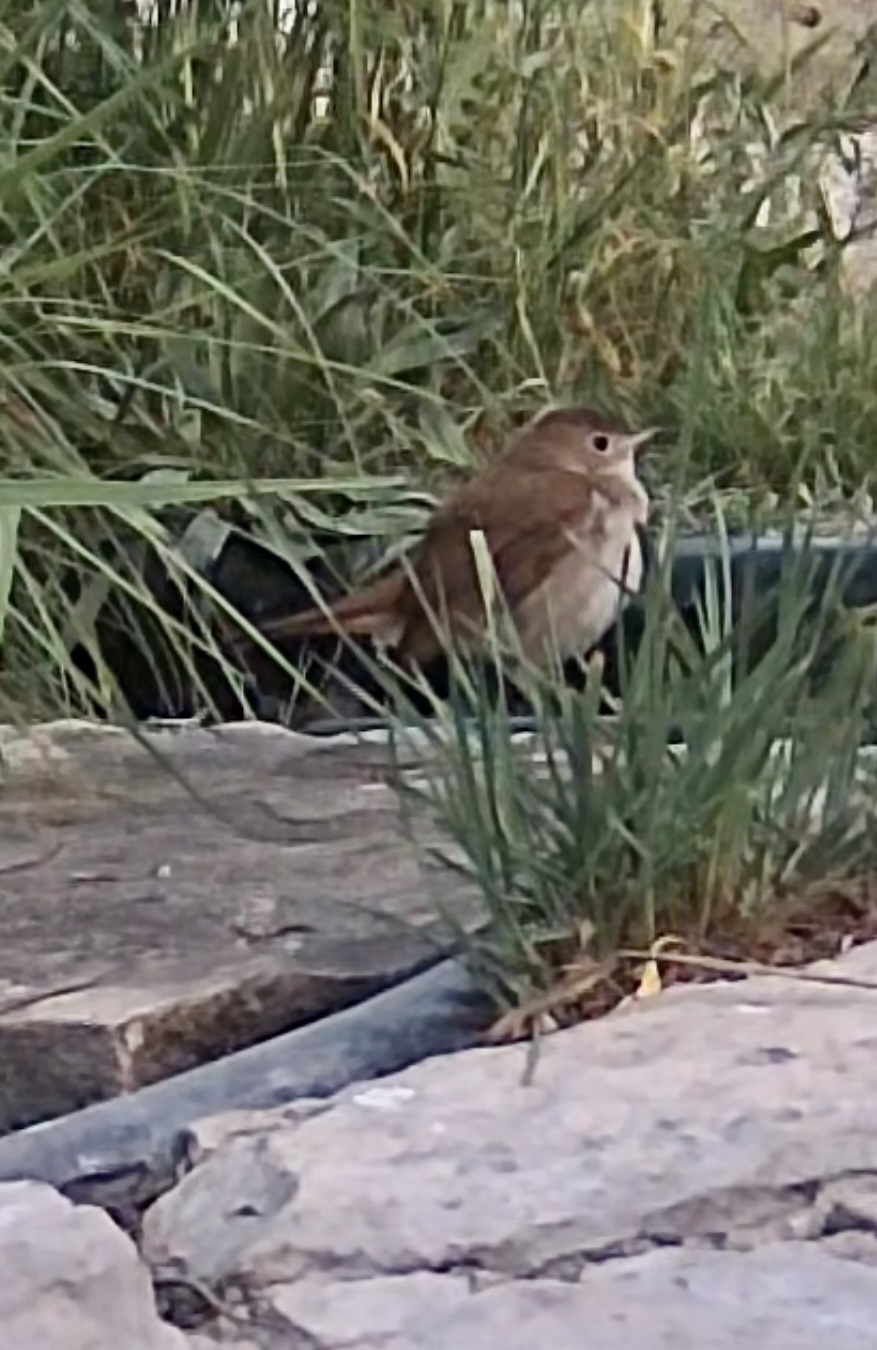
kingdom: Animalia
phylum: Chordata
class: Aves
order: Passeriformes
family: Muscicapidae
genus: Luscinia
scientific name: Luscinia megarhynchos
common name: Common nightingale
